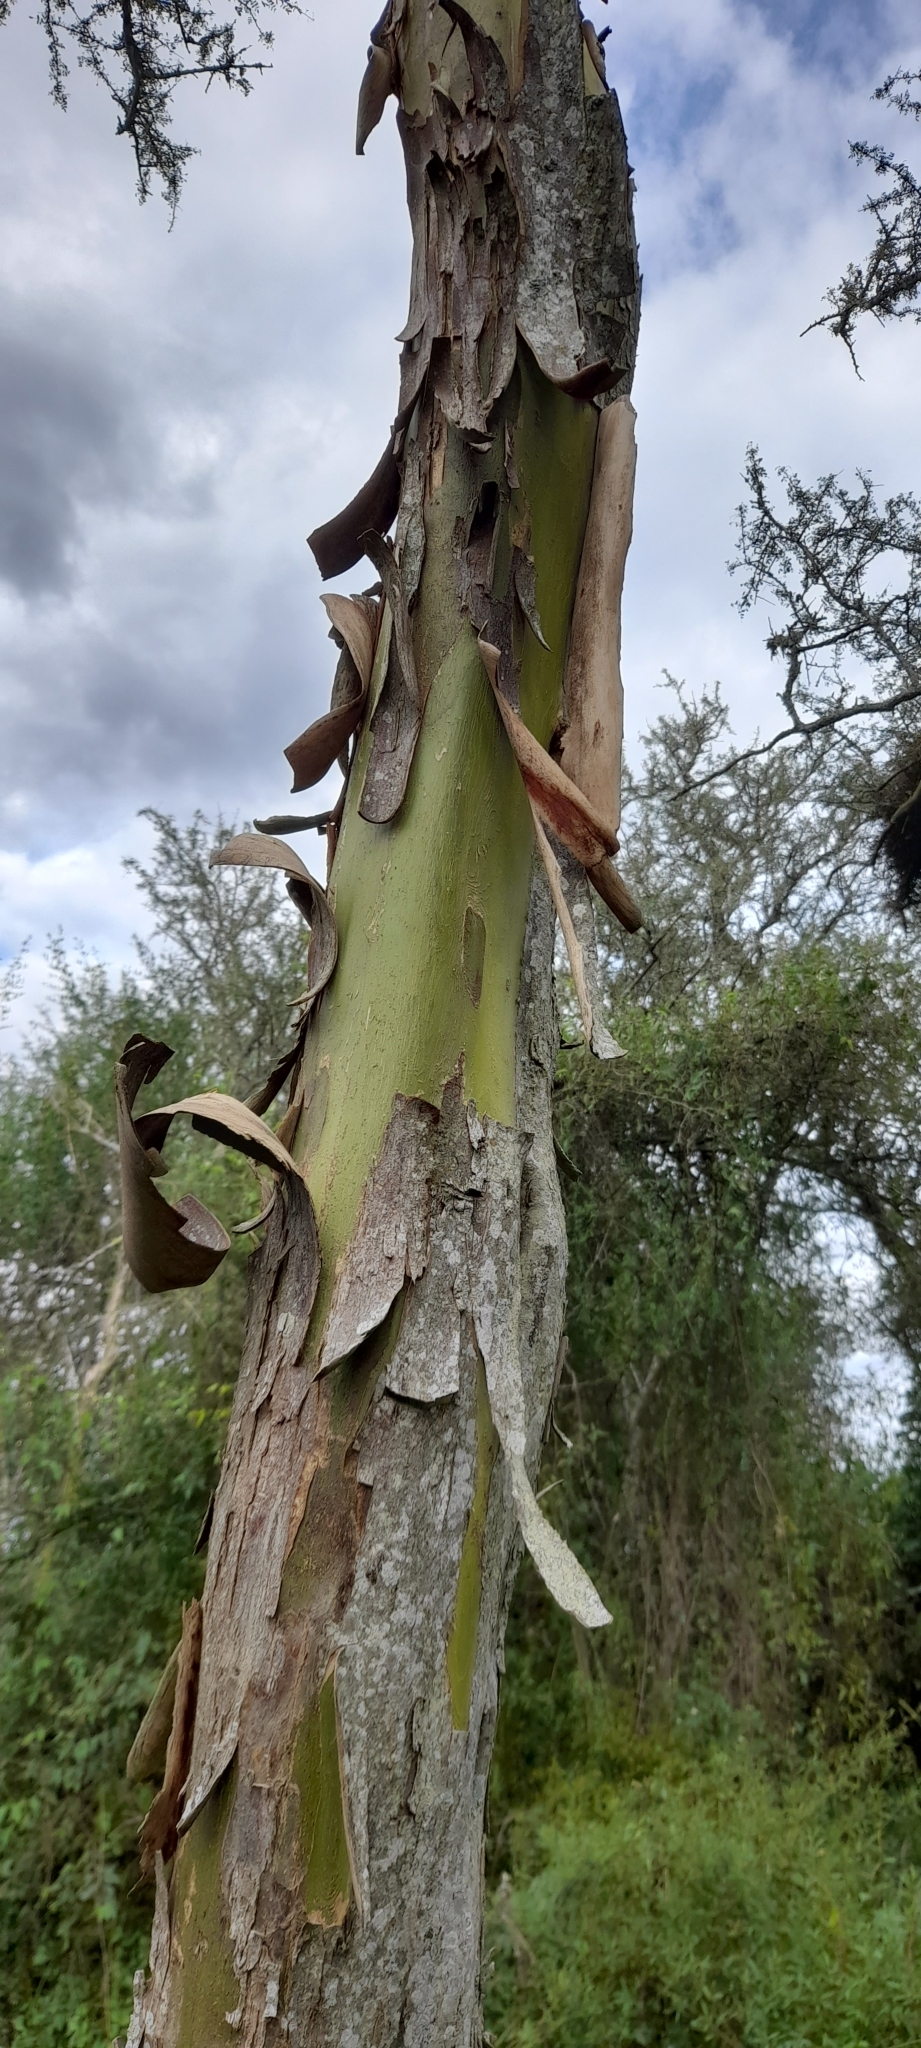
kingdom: Plantae
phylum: Tracheophyta
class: Magnoliopsida
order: Fabales
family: Fabaceae
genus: Geoffroea
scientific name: Geoffroea decorticans
